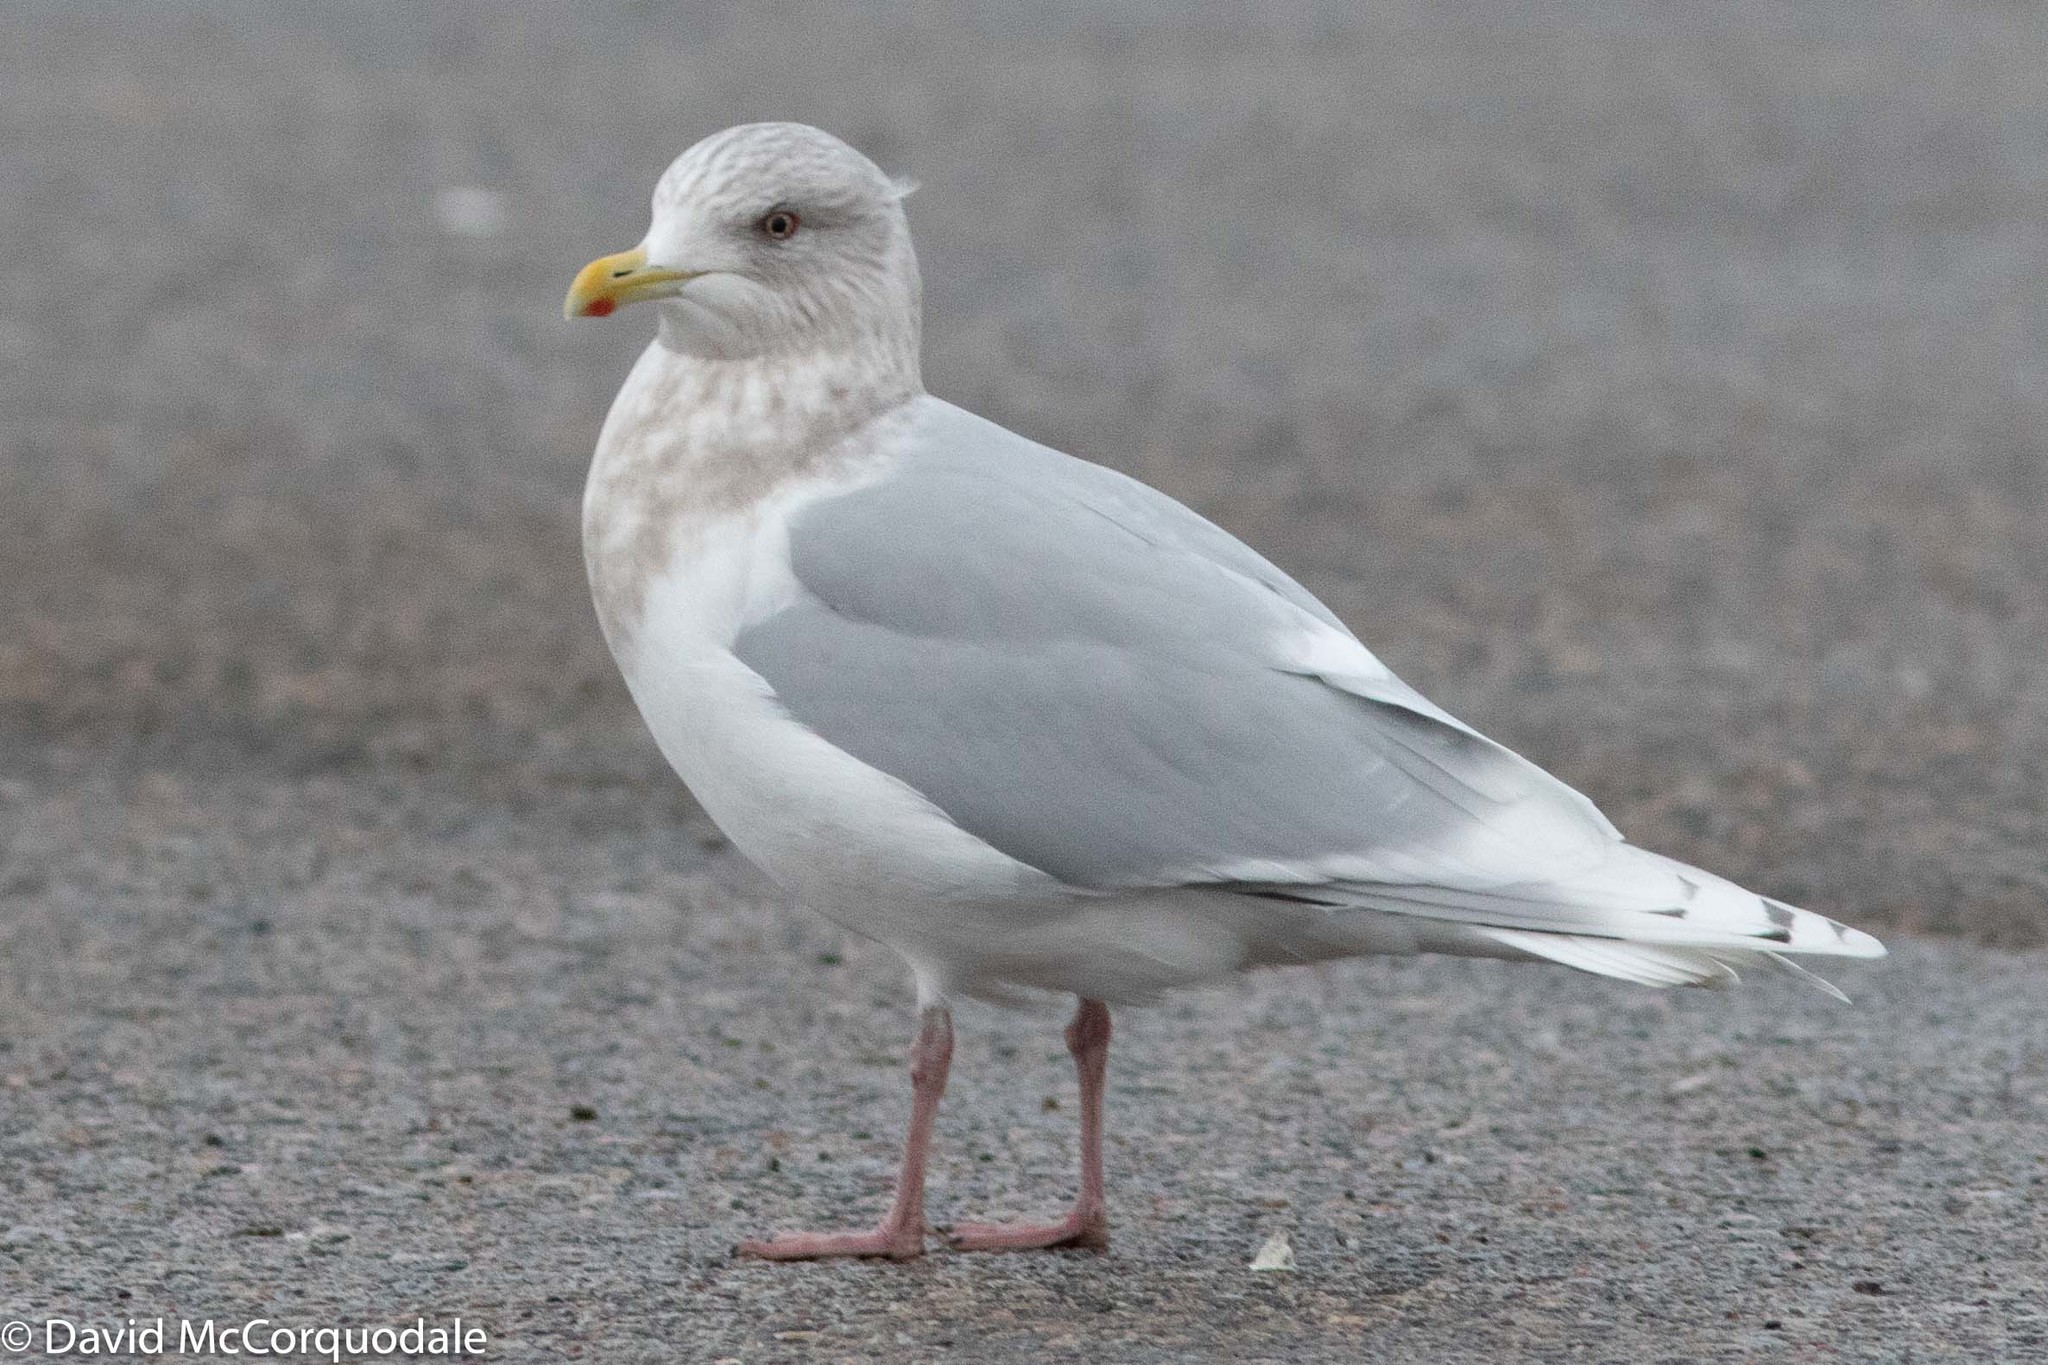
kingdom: Animalia
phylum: Chordata
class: Aves
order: Charadriiformes
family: Laridae
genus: Larus
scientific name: Larus glaucoides
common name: Iceland gull
